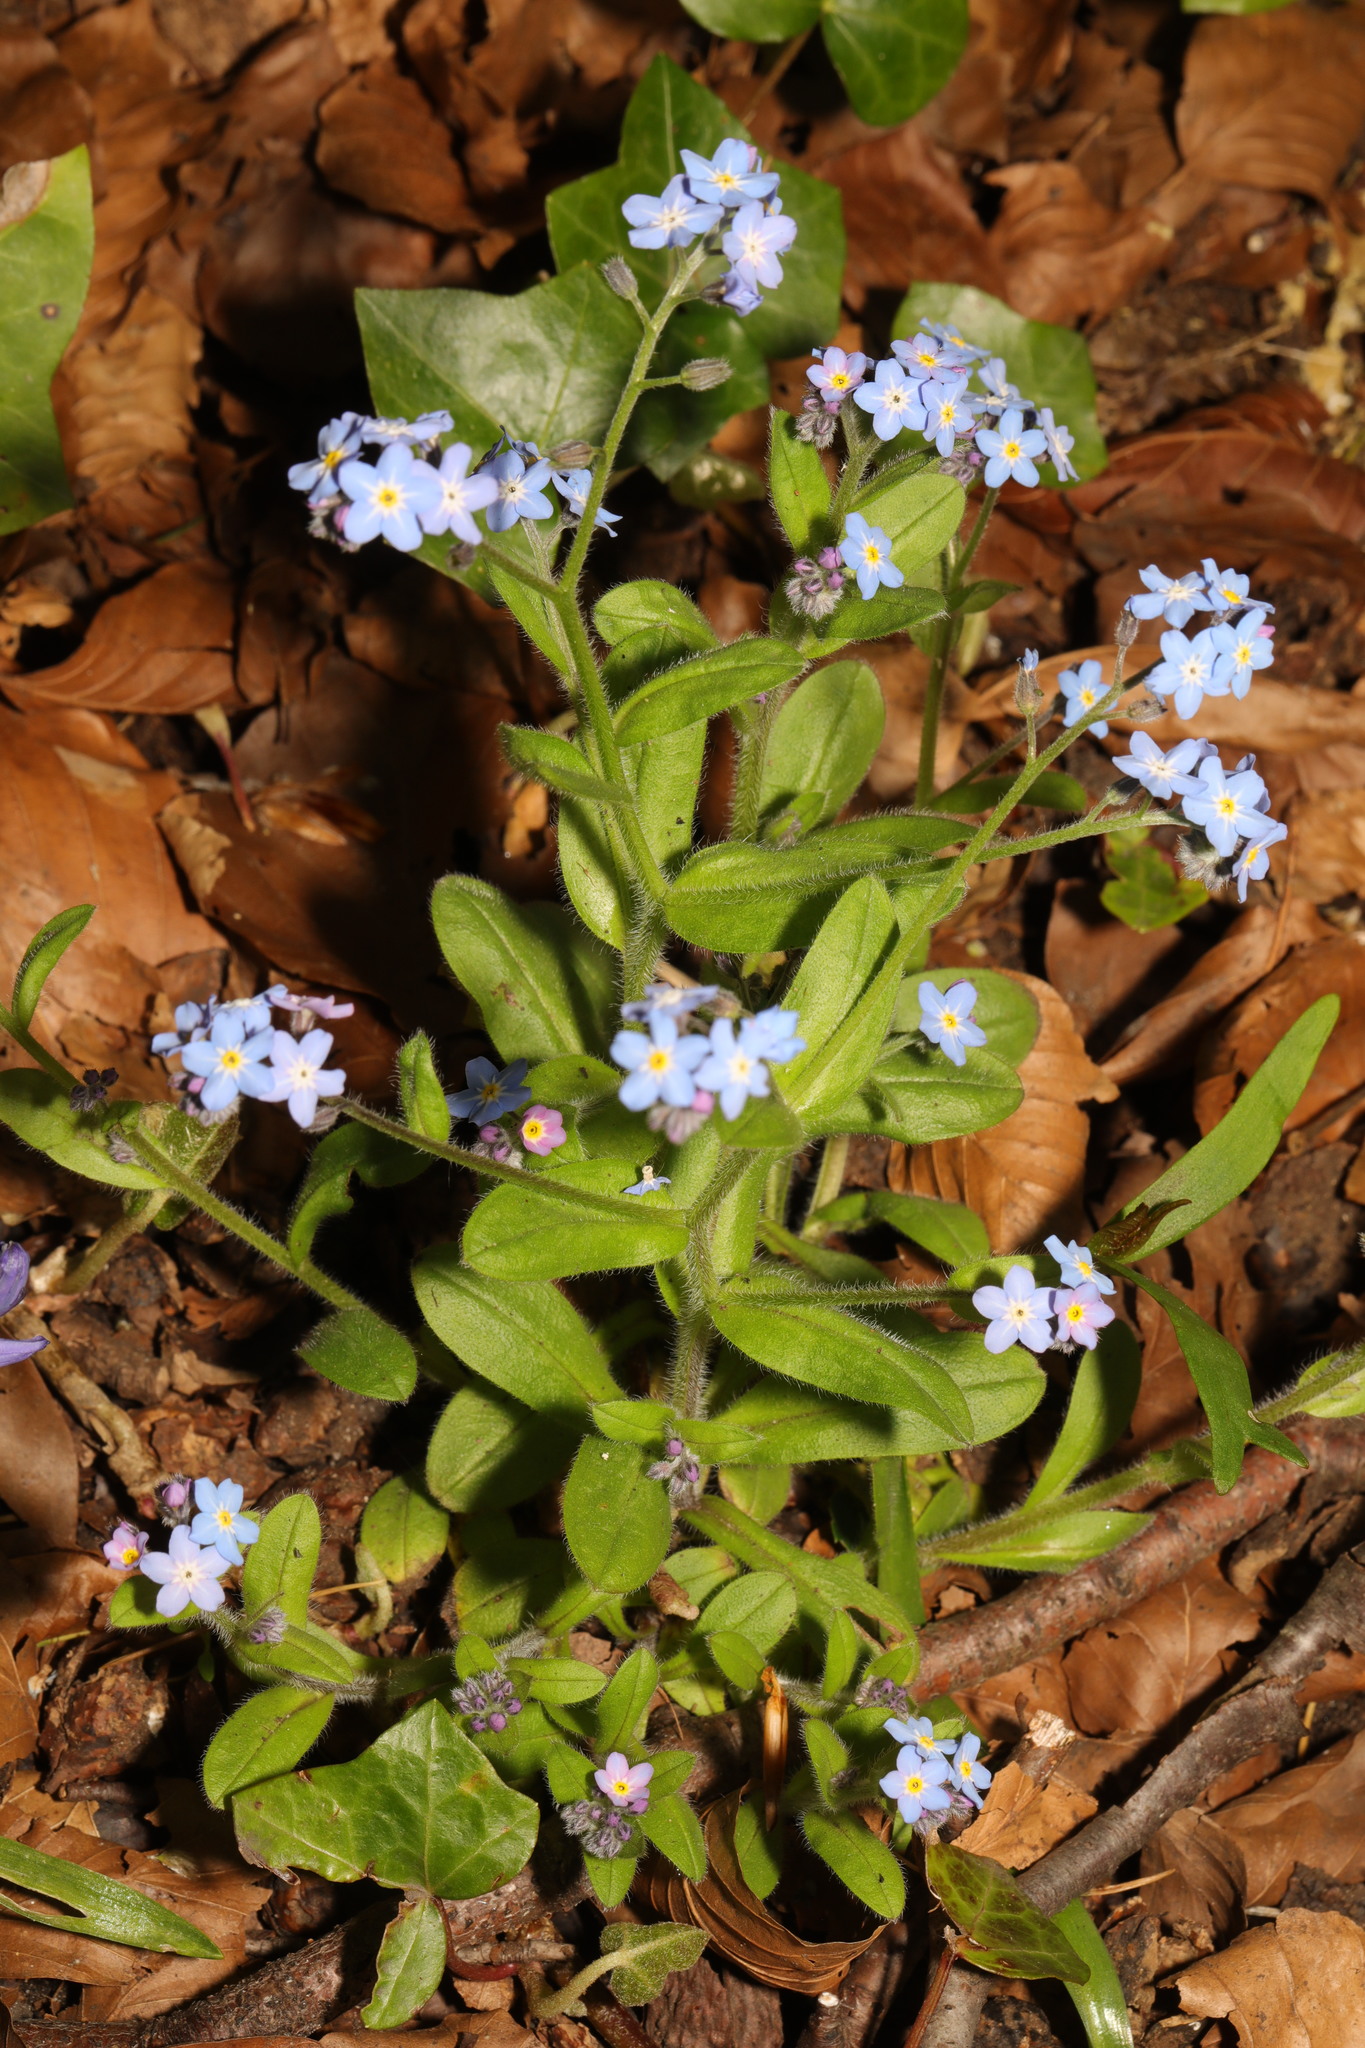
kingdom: Plantae
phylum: Tracheophyta
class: Magnoliopsida
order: Boraginales
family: Boraginaceae
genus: Myosotis
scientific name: Myosotis sylvatica
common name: Wood forget-me-not
